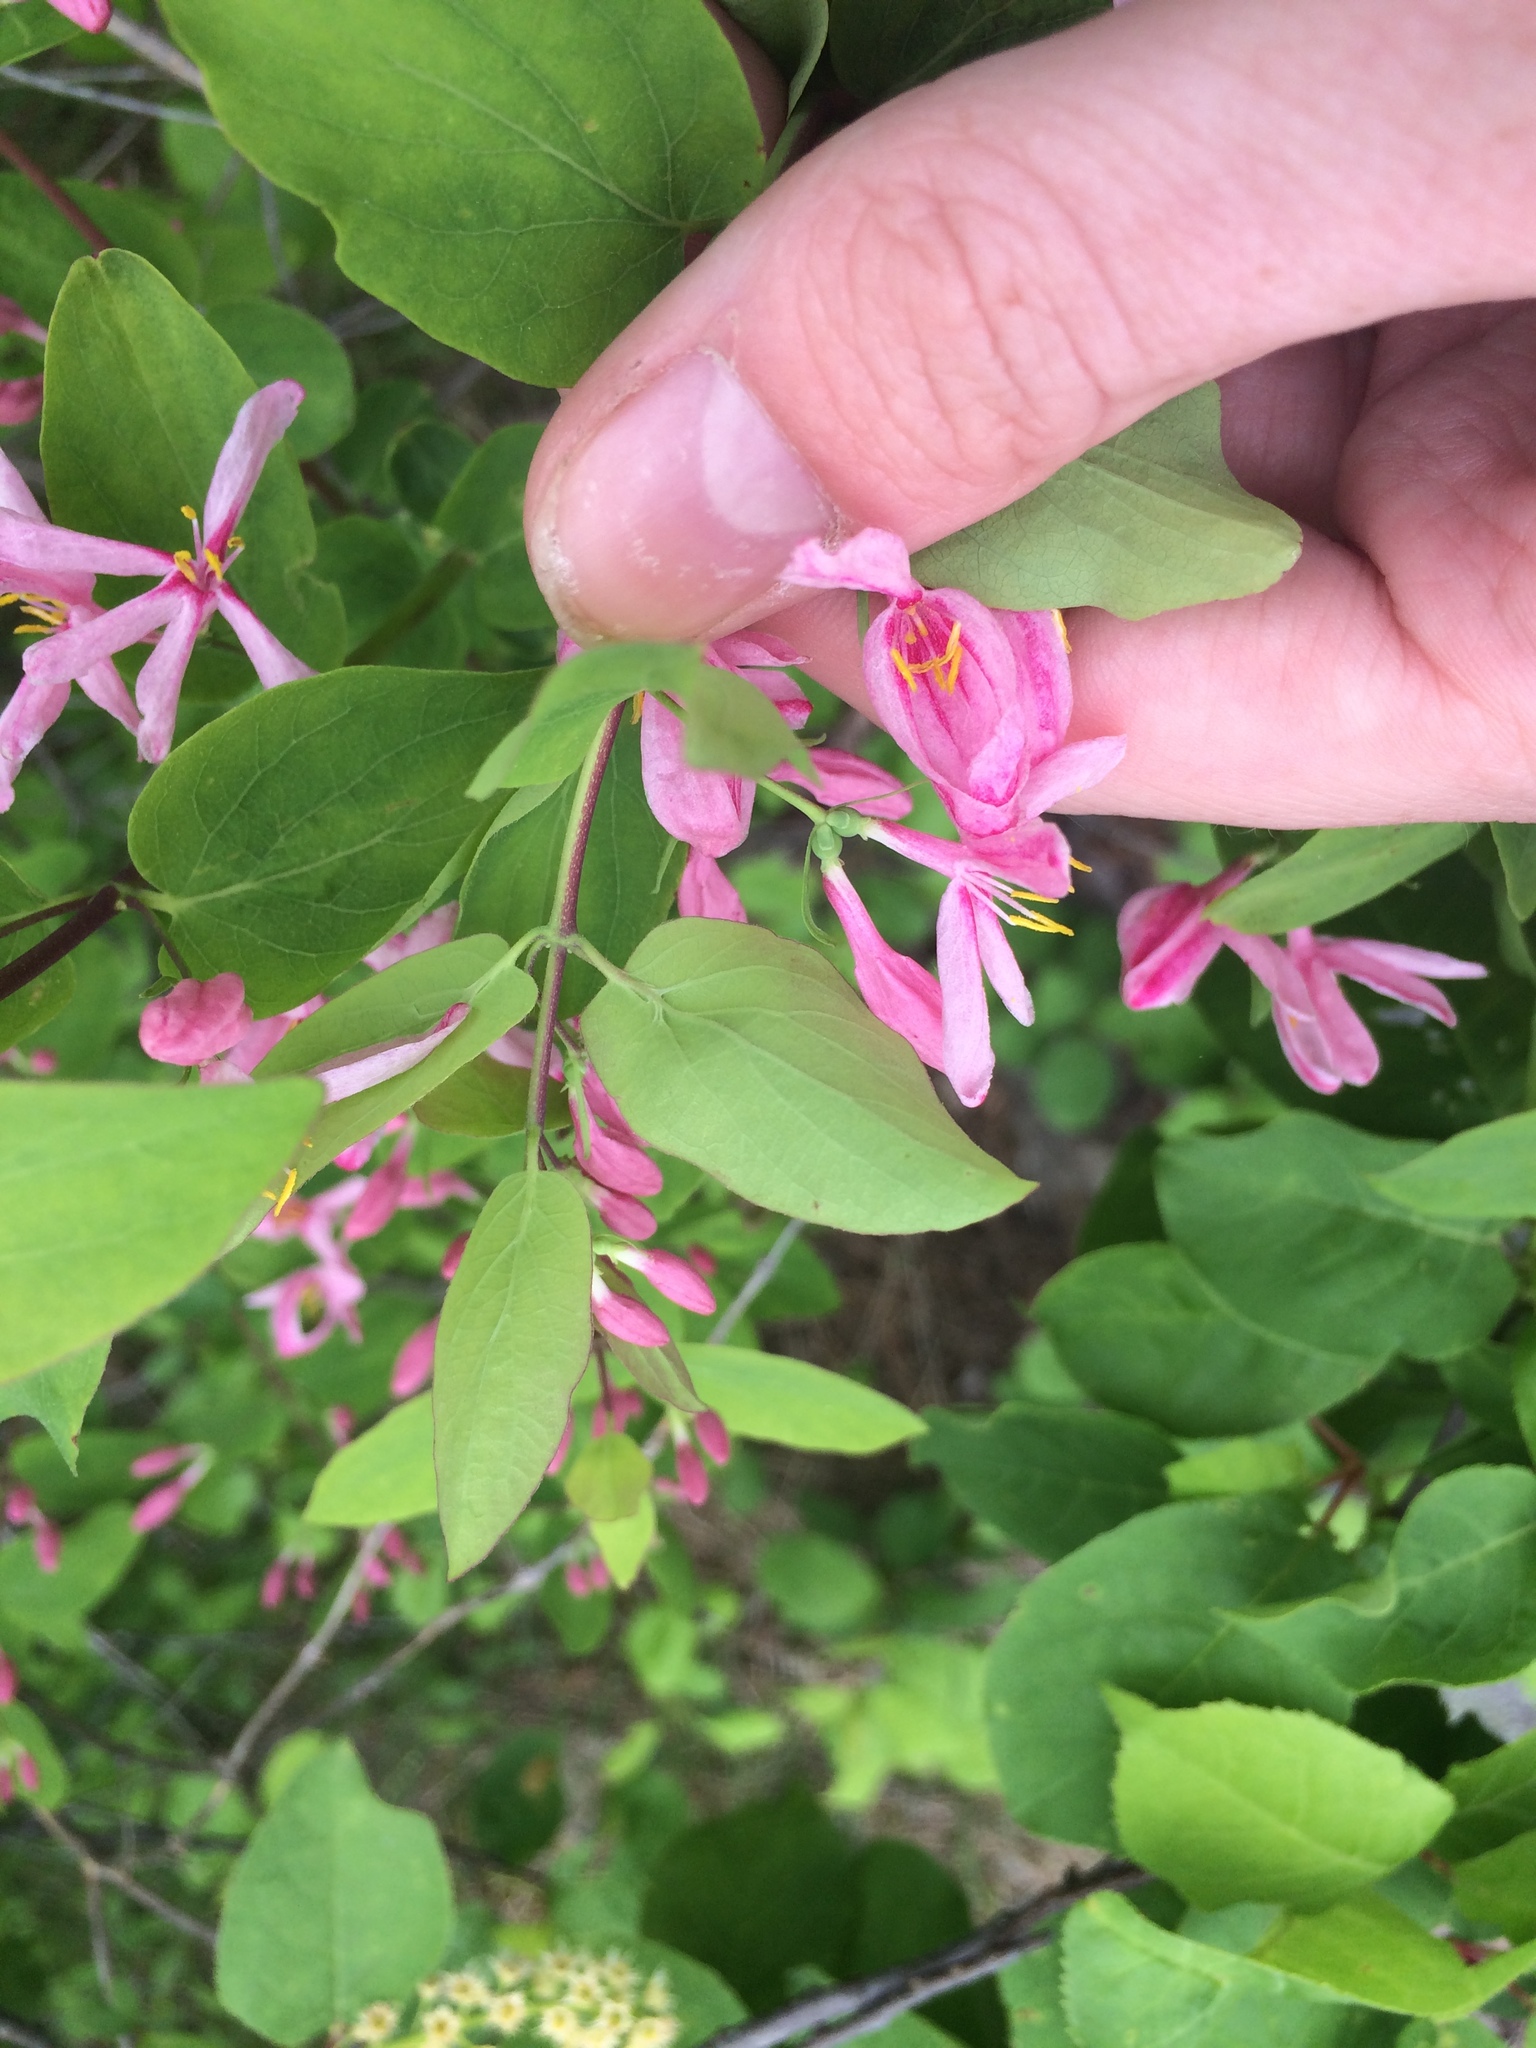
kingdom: Plantae
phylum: Tracheophyta
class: Magnoliopsida
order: Dipsacales
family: Caprifoliaceae
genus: Lonicera
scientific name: Lonicera tatarica
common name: Tatarian honeysuckle
